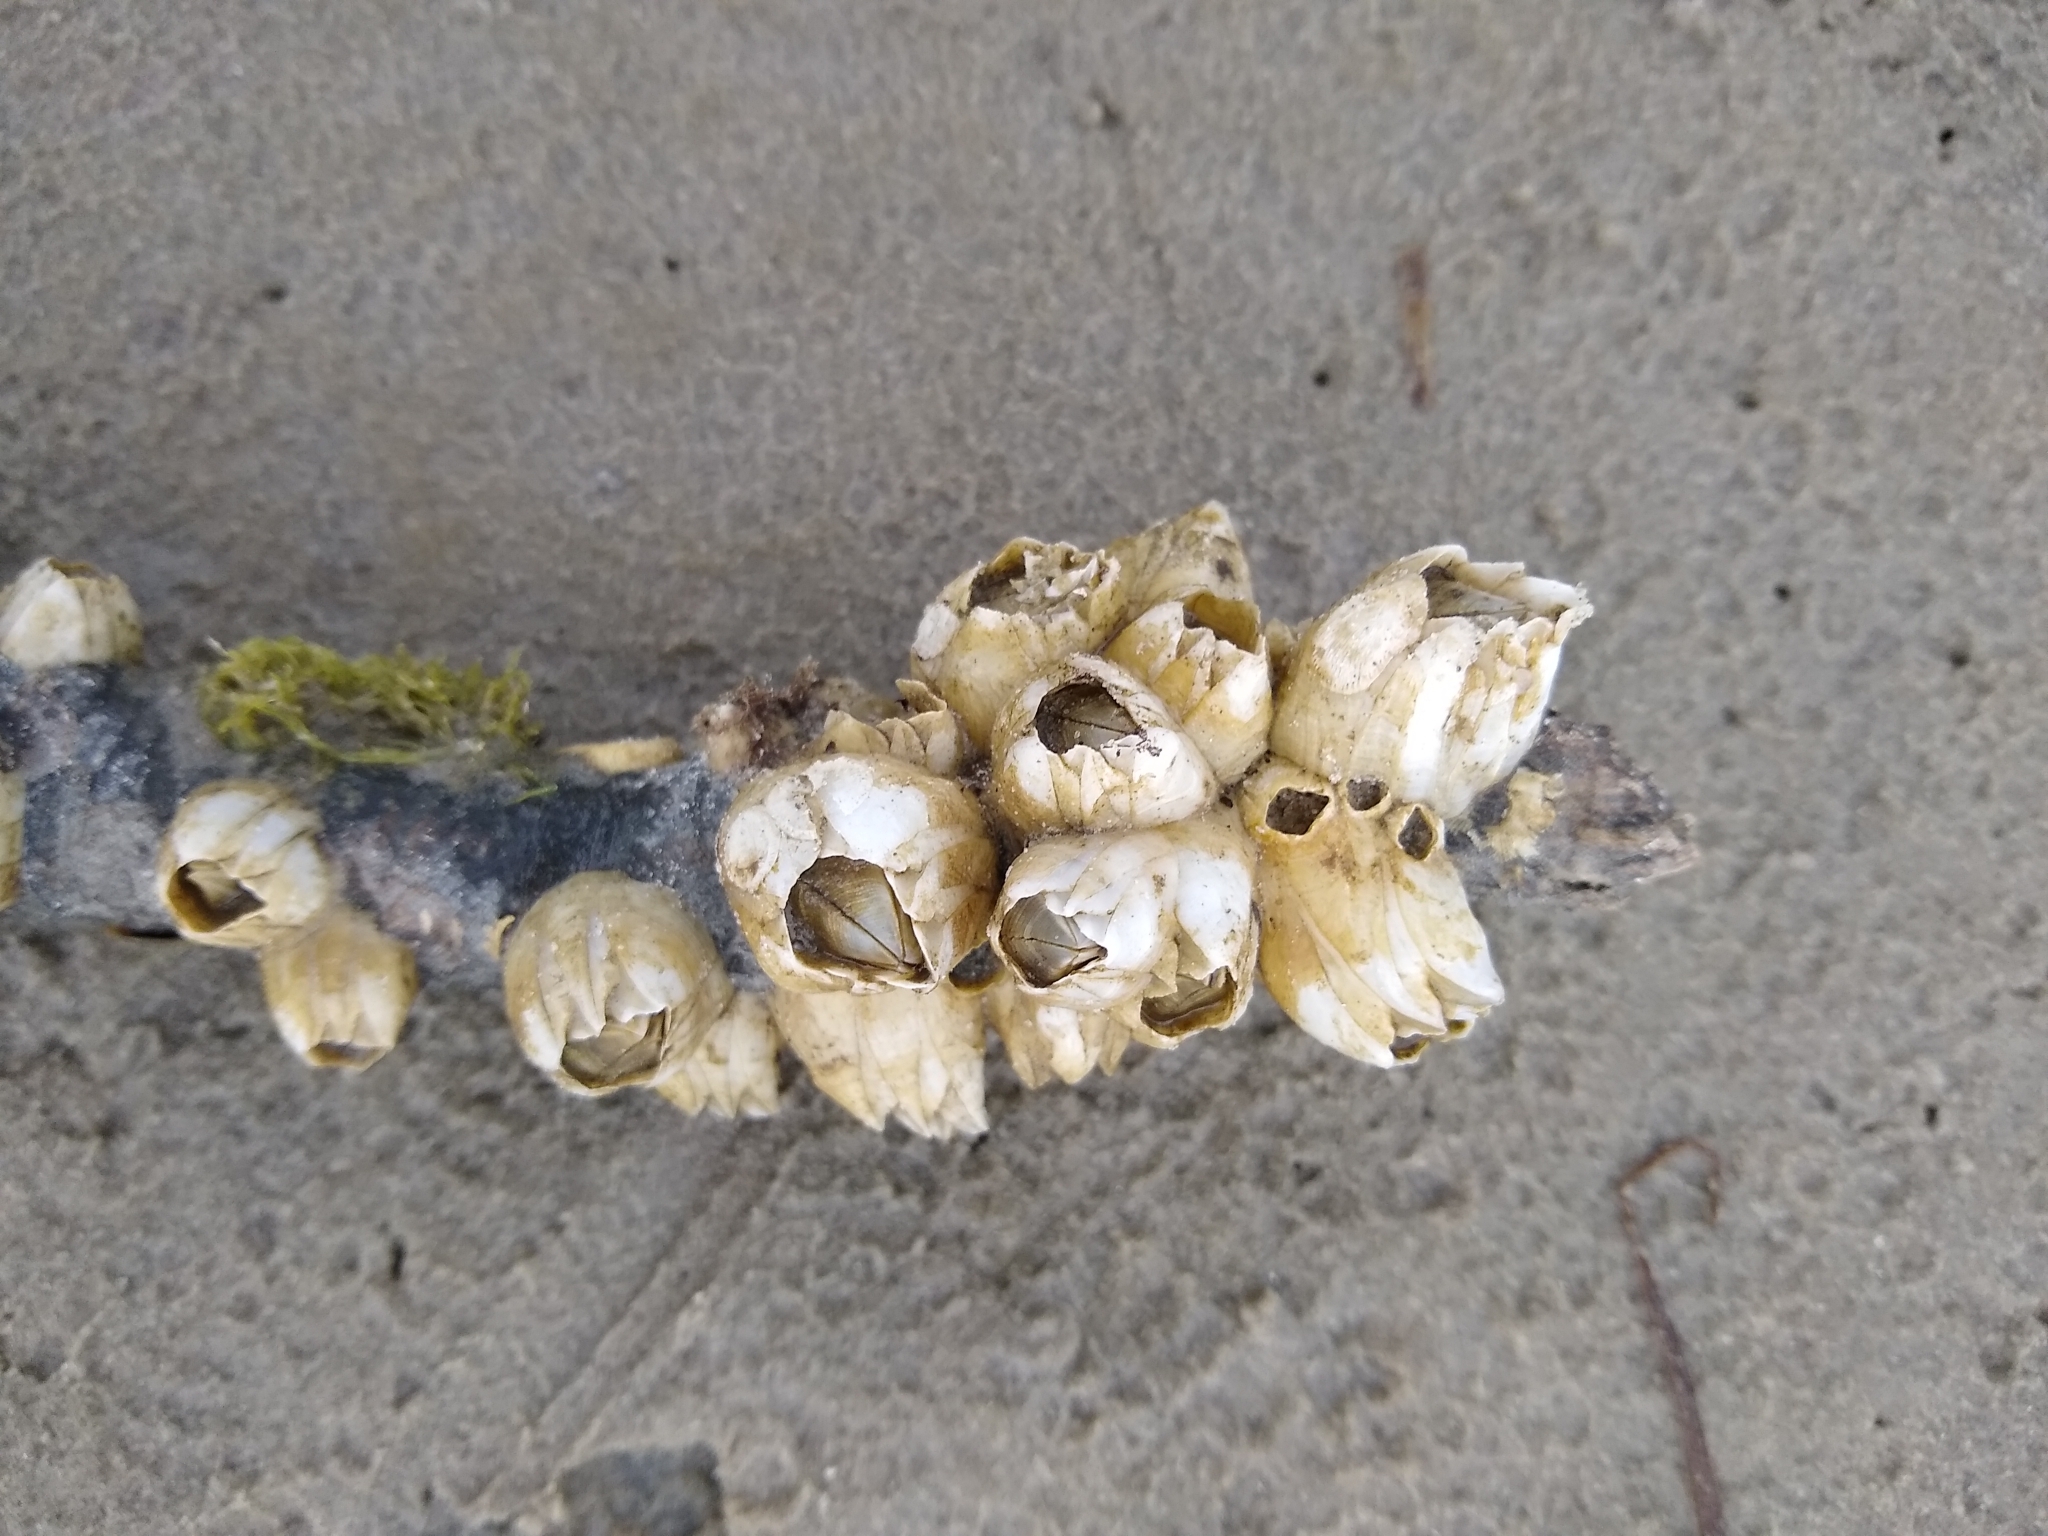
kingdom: Animalia
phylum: Arthropoda
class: Maxillopoda
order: Sessilia
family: Balanidae
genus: Amphibalanus
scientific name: Amphibalanus eburneus
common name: Ivory barnacle
